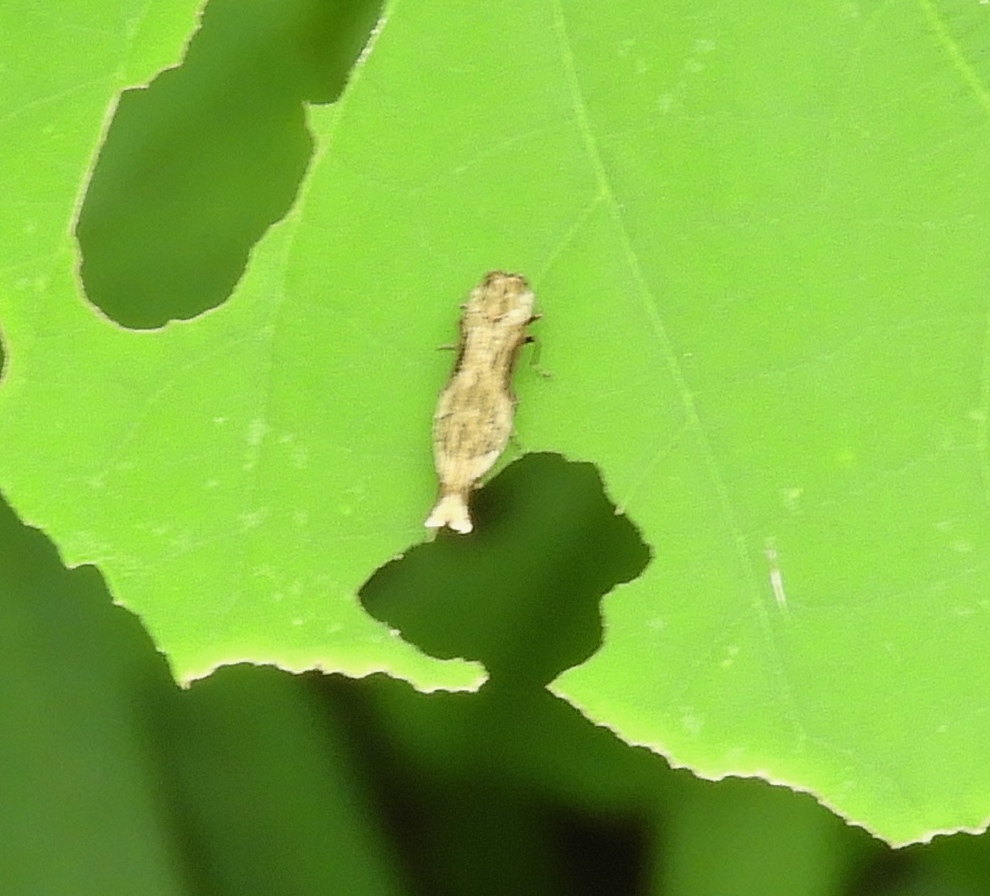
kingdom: Animalia
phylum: Arthropoda
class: Insecta
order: Coleoptera
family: Buprestidae
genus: Agrilus
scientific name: Agrilus langei
